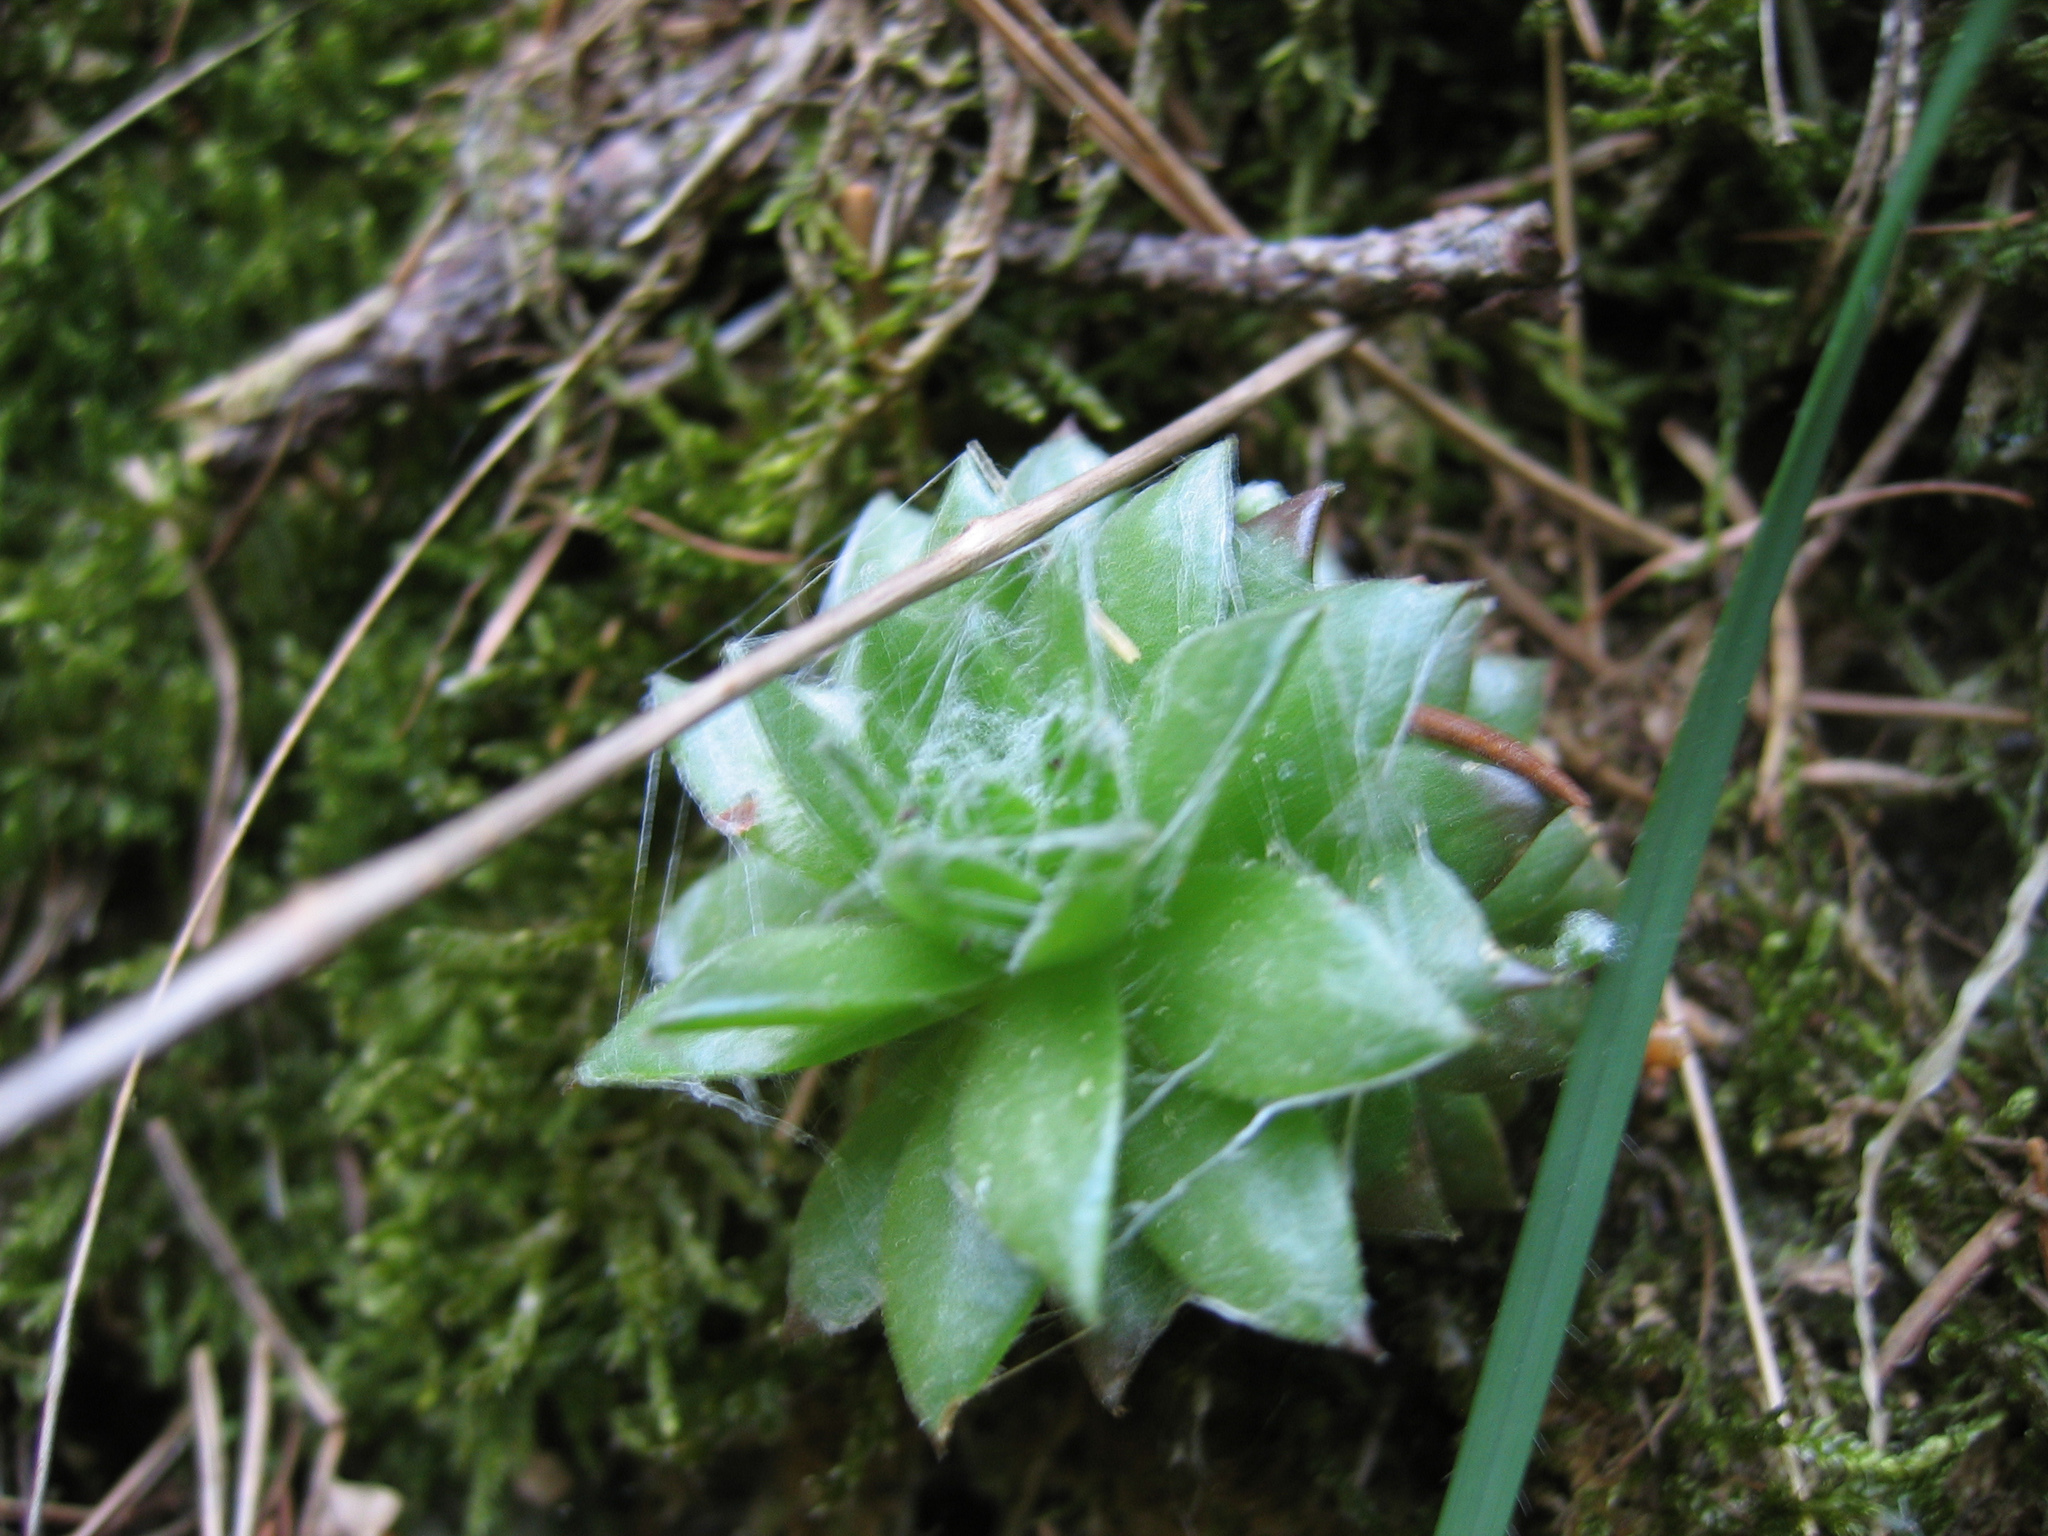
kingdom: Plantae
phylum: Tracheophyta
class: Magnoliopsida
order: Saxifragales
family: Crassulaceae
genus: Sempervivum
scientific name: Sempervivum arachnoideum
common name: Cobweb house-leek
